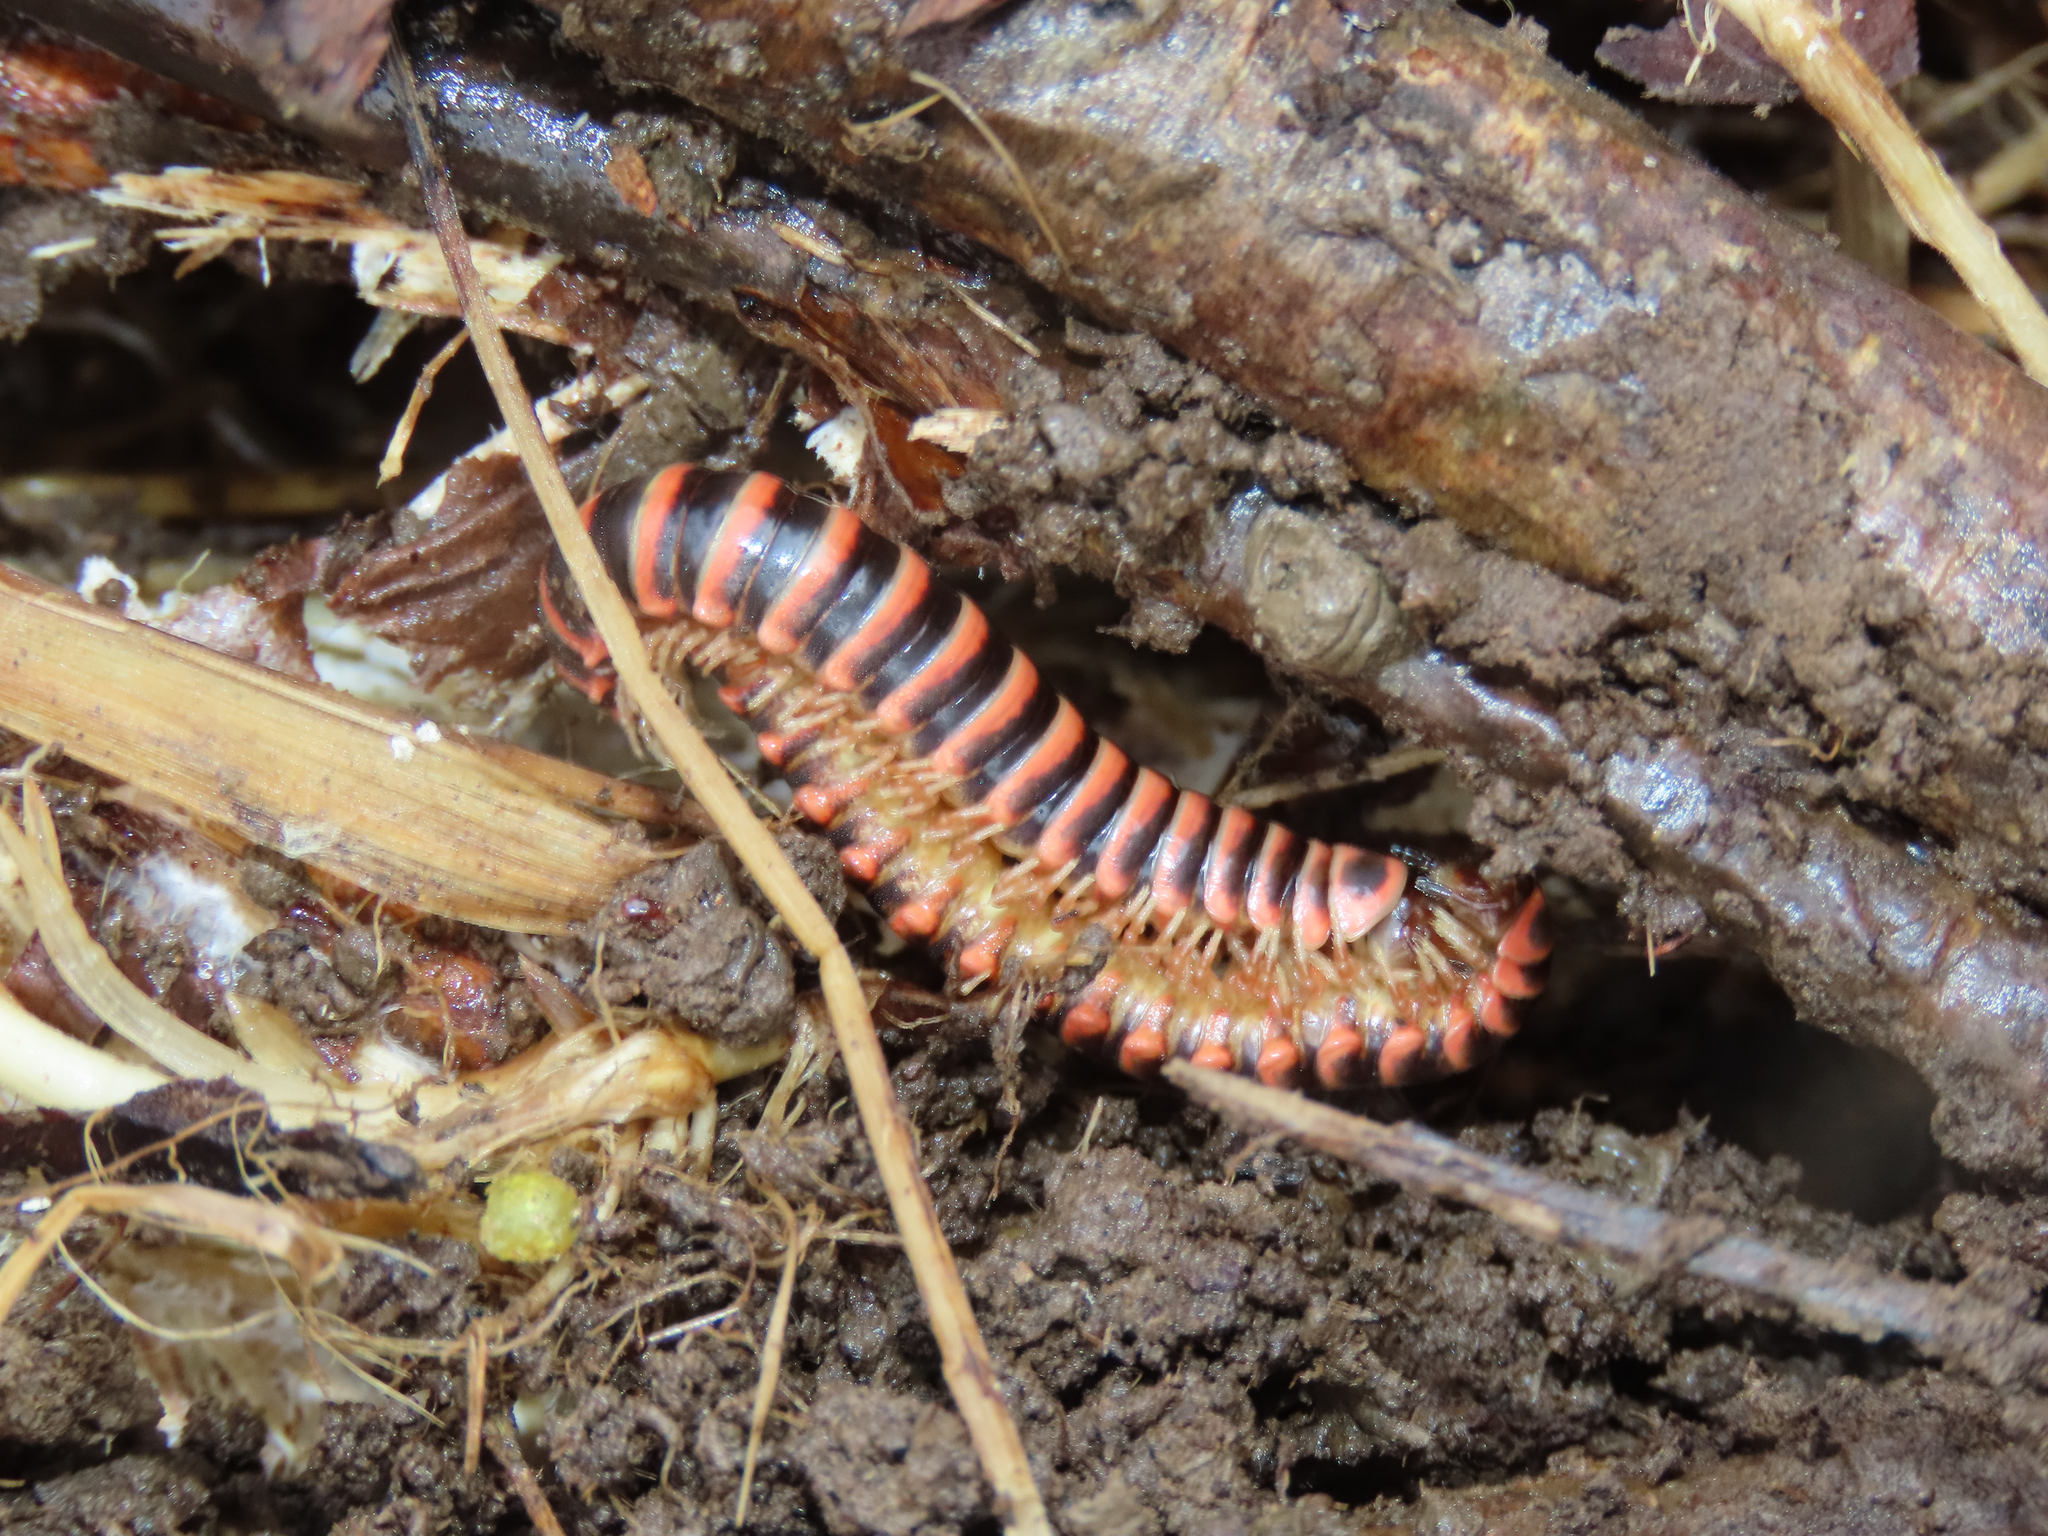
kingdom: Animalia
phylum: Arthropoda
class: Diplopoda
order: Polydesmida
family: Xystodesmidae
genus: Semionellus
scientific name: Semionellus placidus
